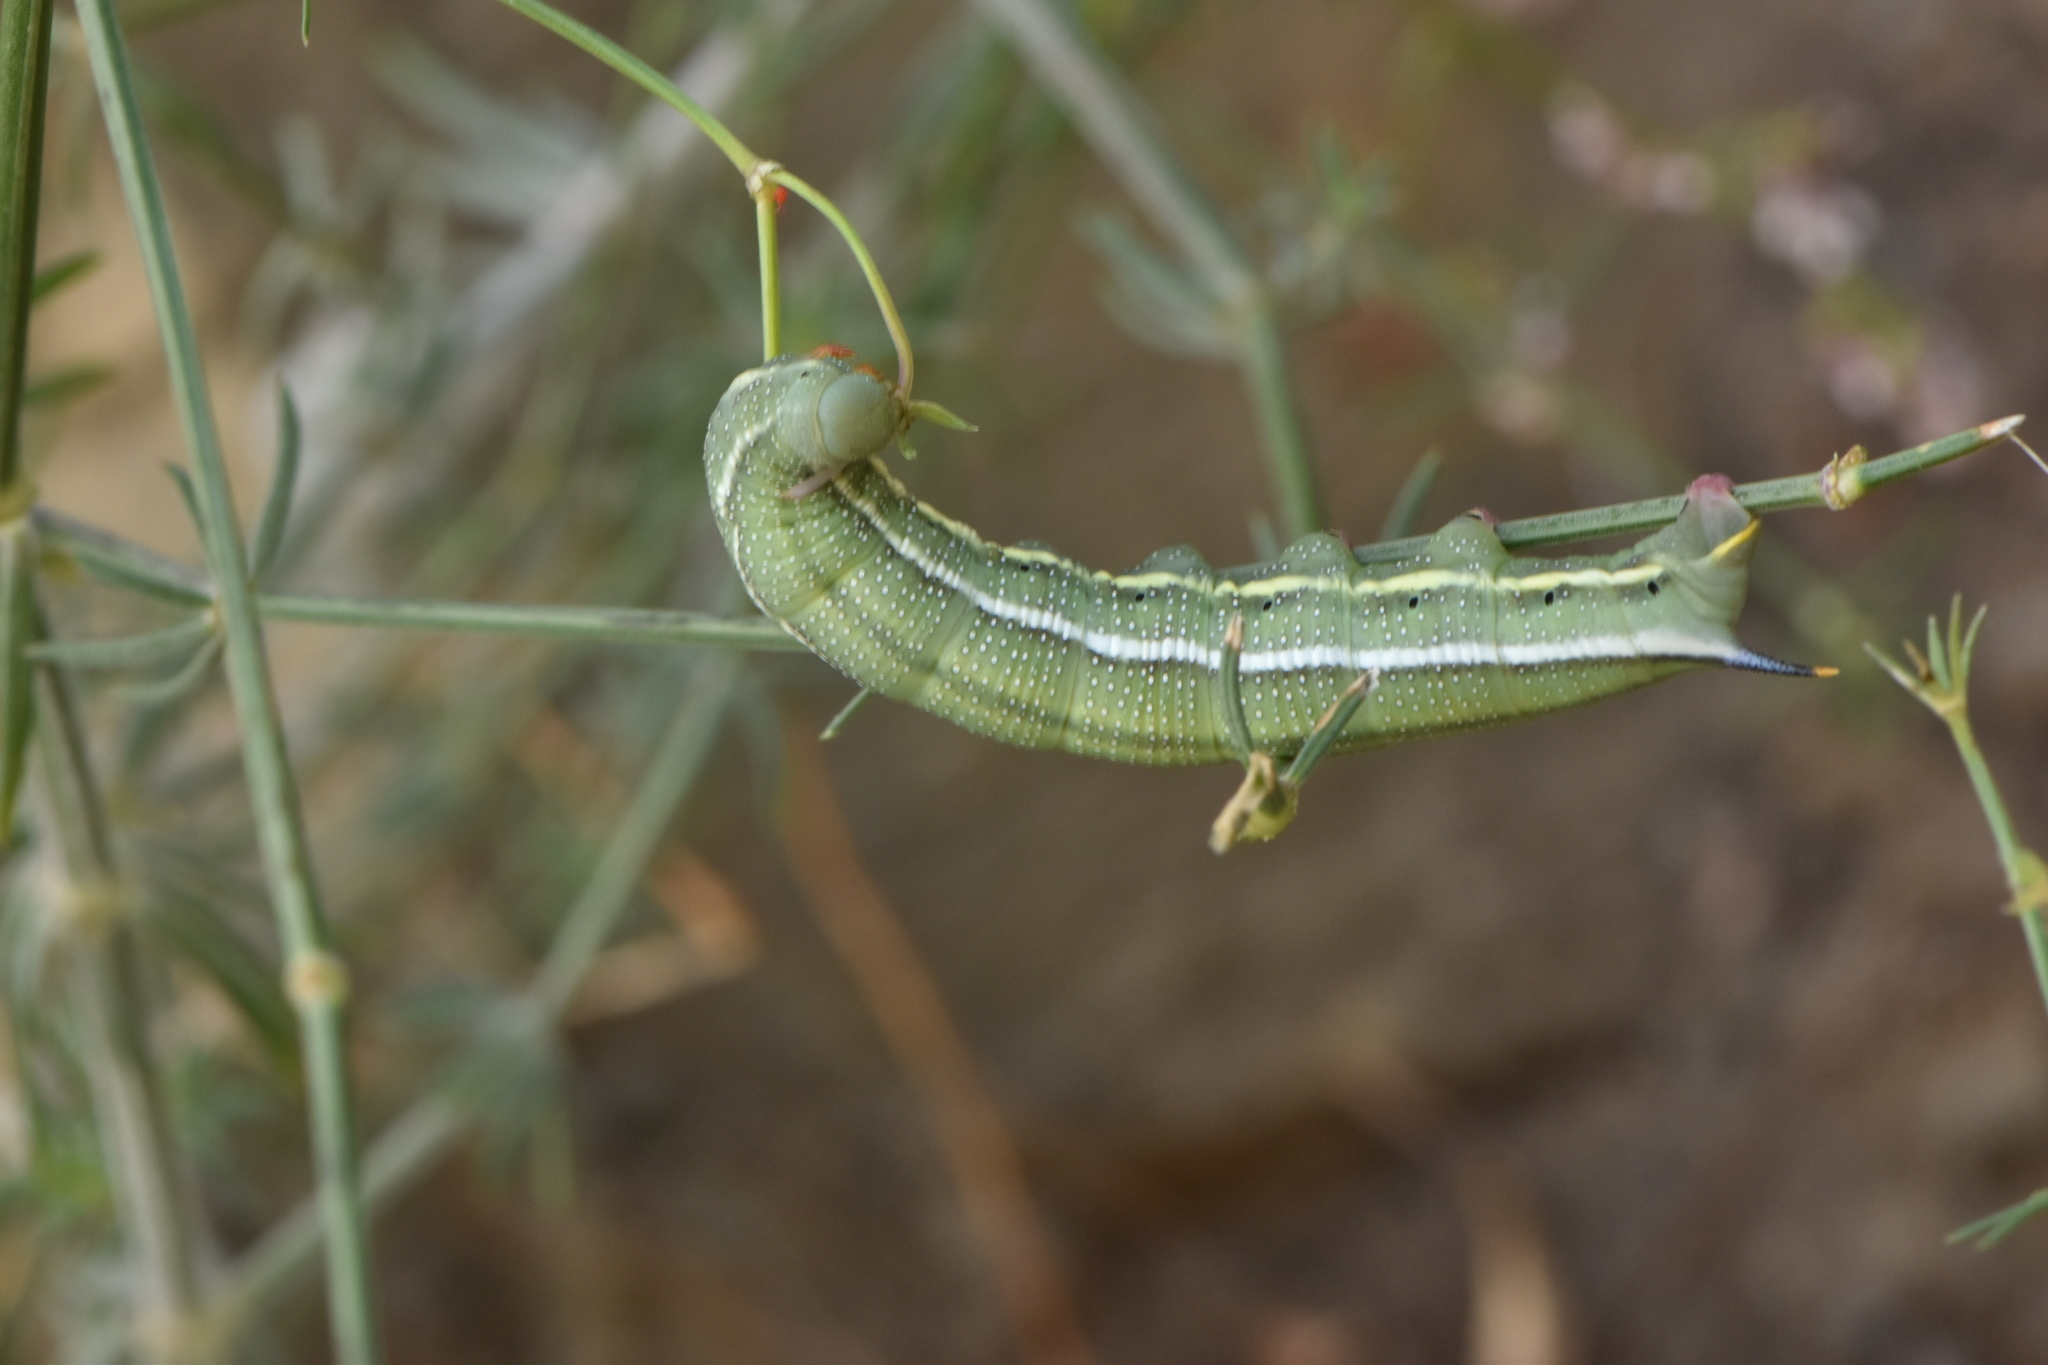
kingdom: Animalia
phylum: Arthropoda
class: Insecta
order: Lepidoptera
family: Sphingidae
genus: Macroglossum
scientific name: Macroglossum stellatarum
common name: Humming-bird hawk-moth
